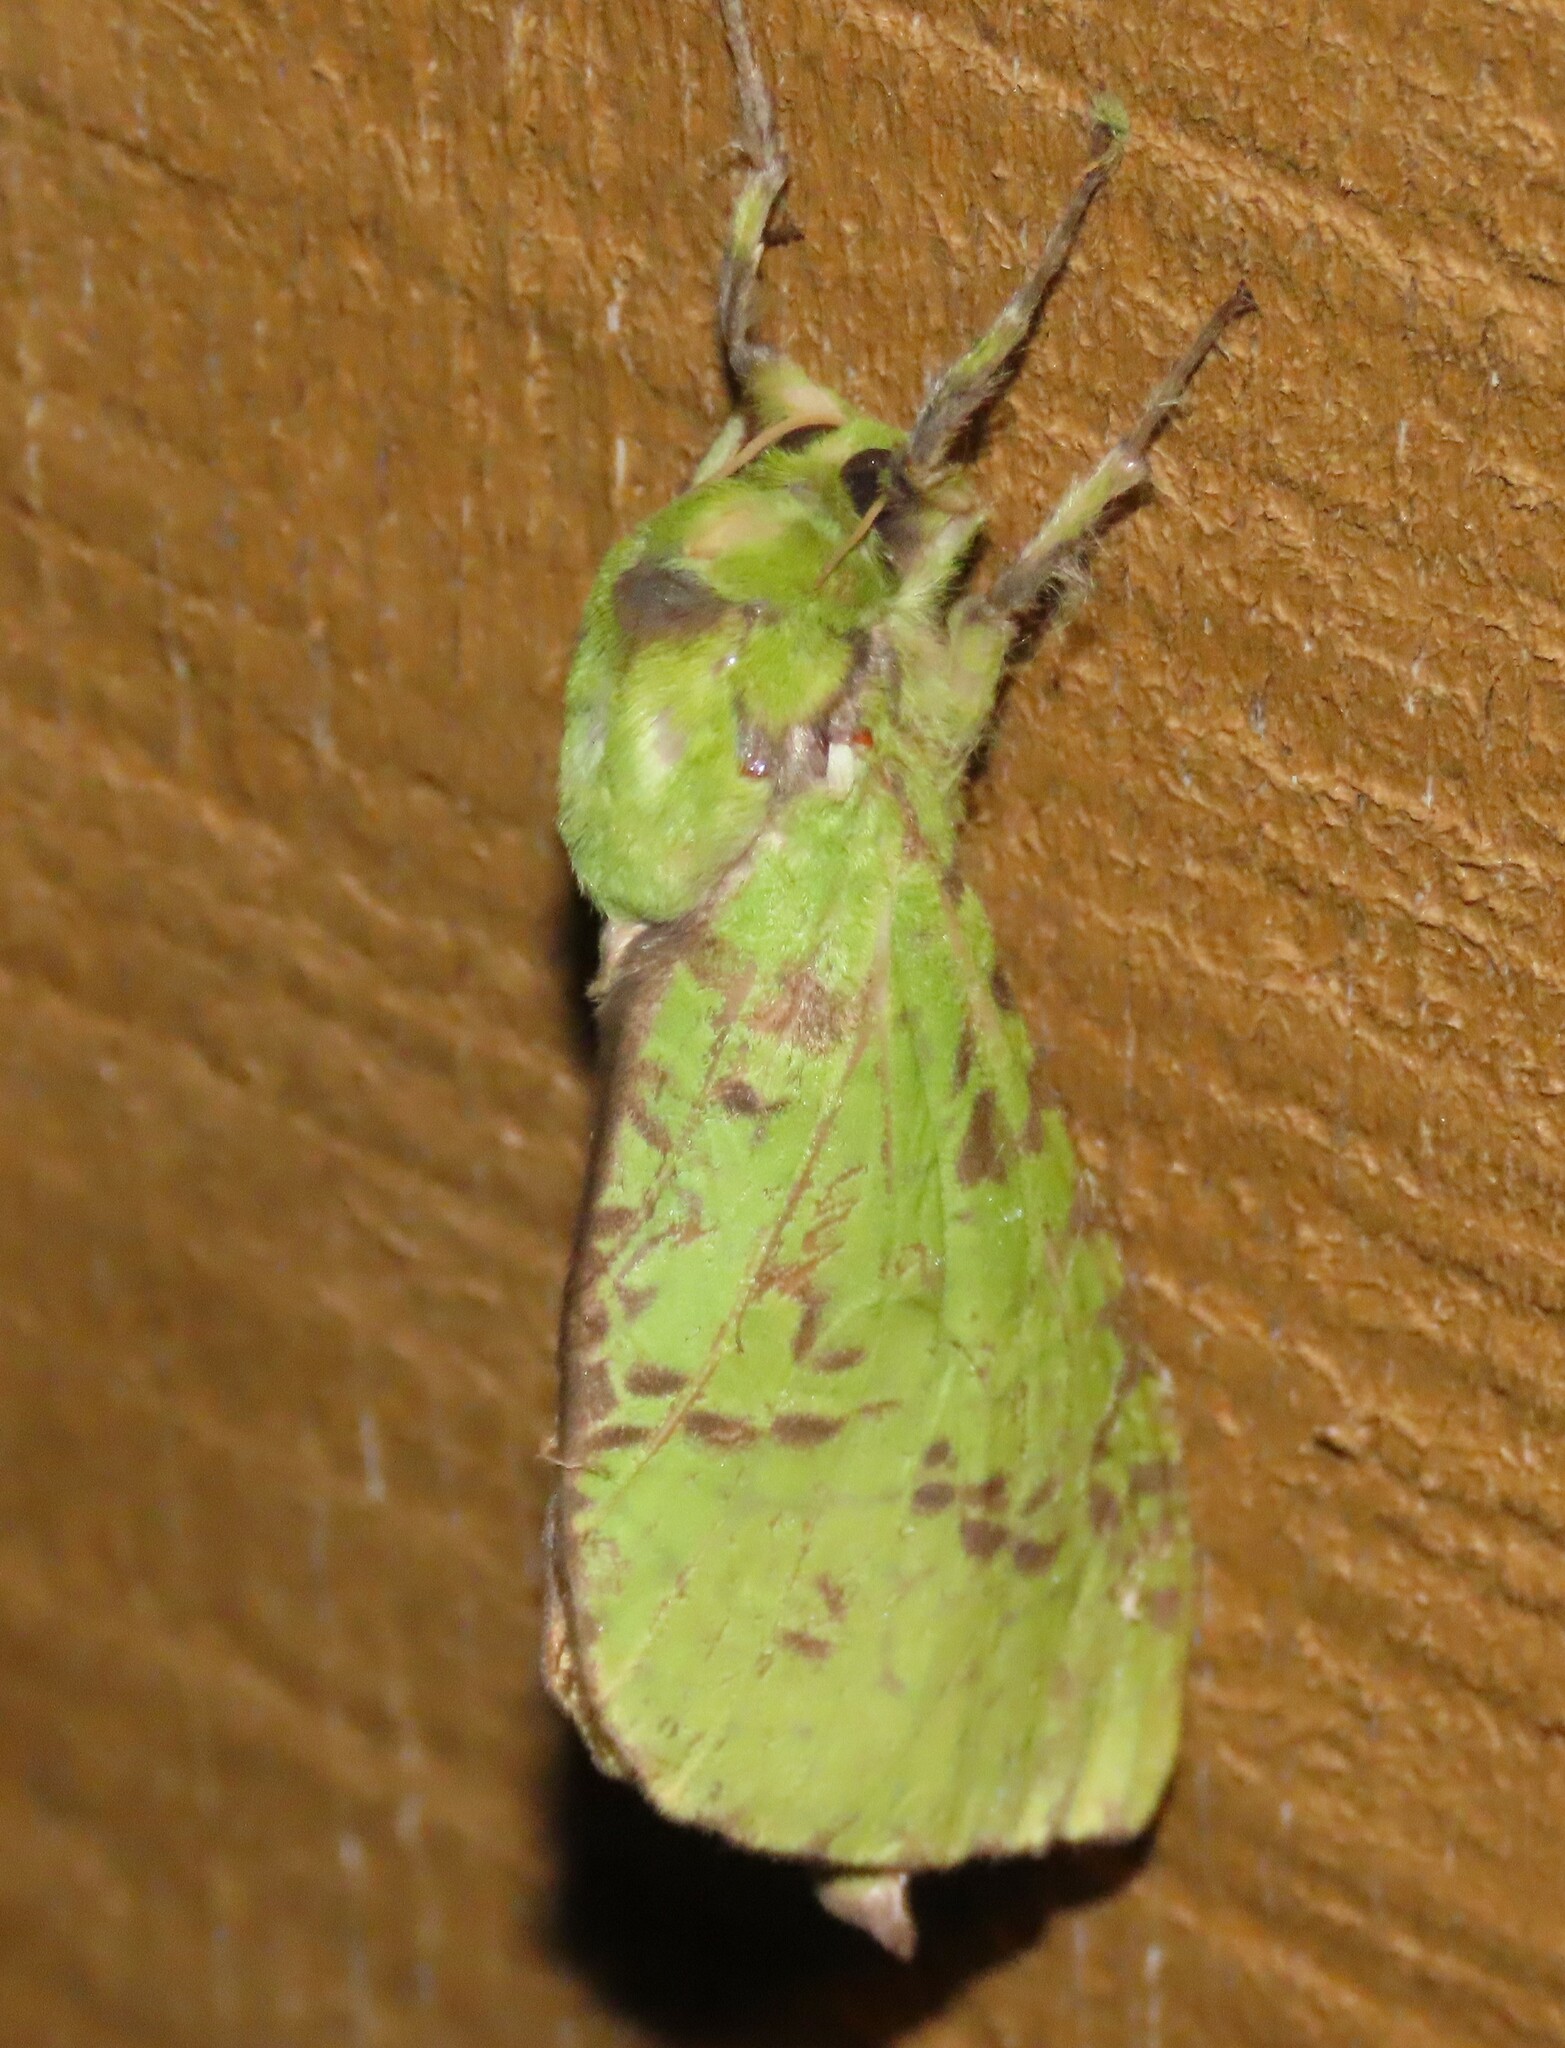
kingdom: Animalia
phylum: Arthropoda
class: Insecta
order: Lepidoptera
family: Hepialidae
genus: Aenetus
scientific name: Aenetus virescens
